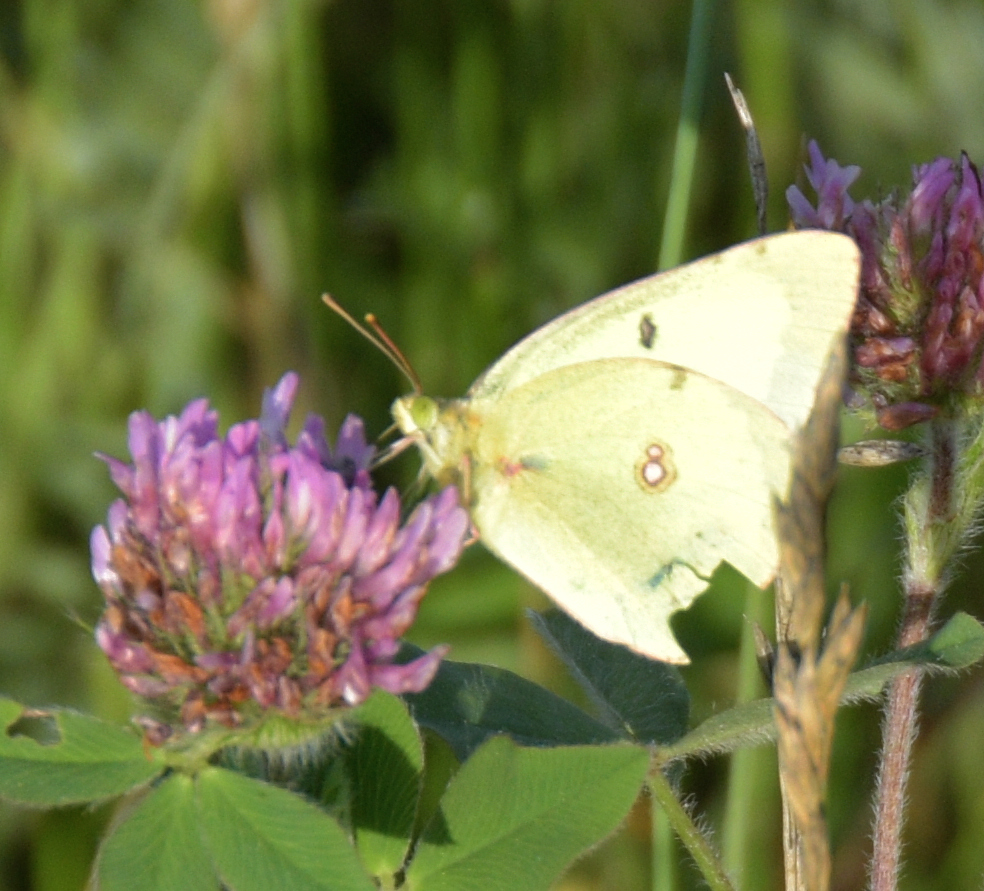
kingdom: Animalia
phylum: Arthropoda
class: Insecta
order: Lepidoptera
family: Pieridae
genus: Colias
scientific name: Colias philodice
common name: Clouded sulphur
